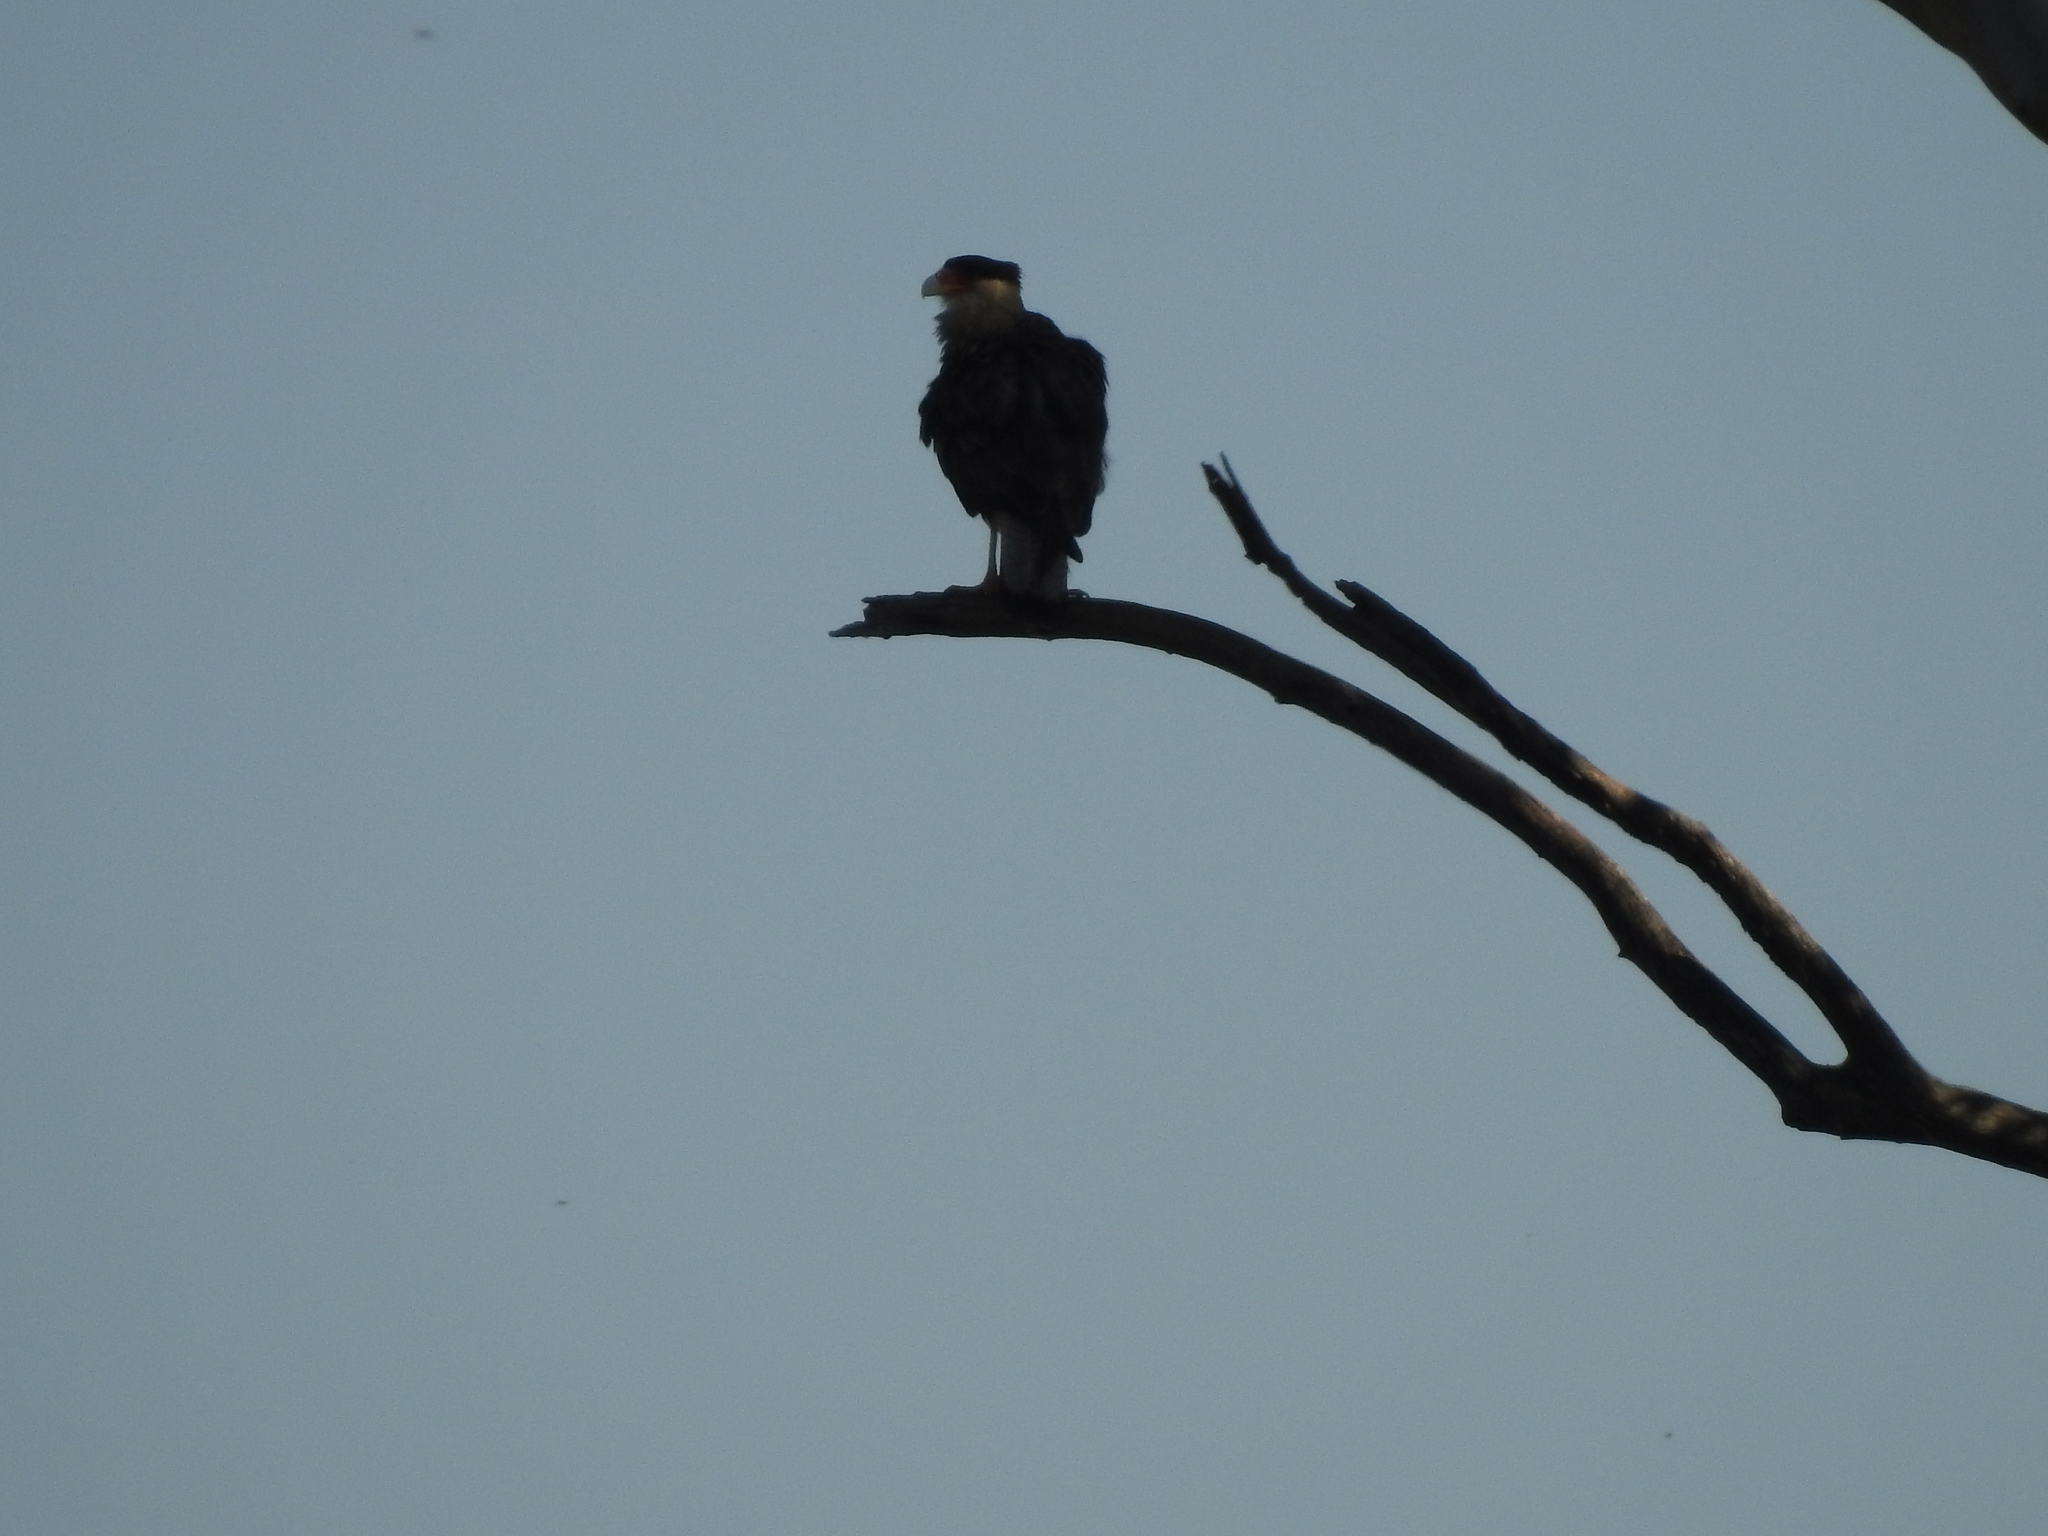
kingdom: Animalia
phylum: Chordata
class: Aves
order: Falconiformes
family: Falconidae
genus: Caracara
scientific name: Caracara plancus
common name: Southern caracara
